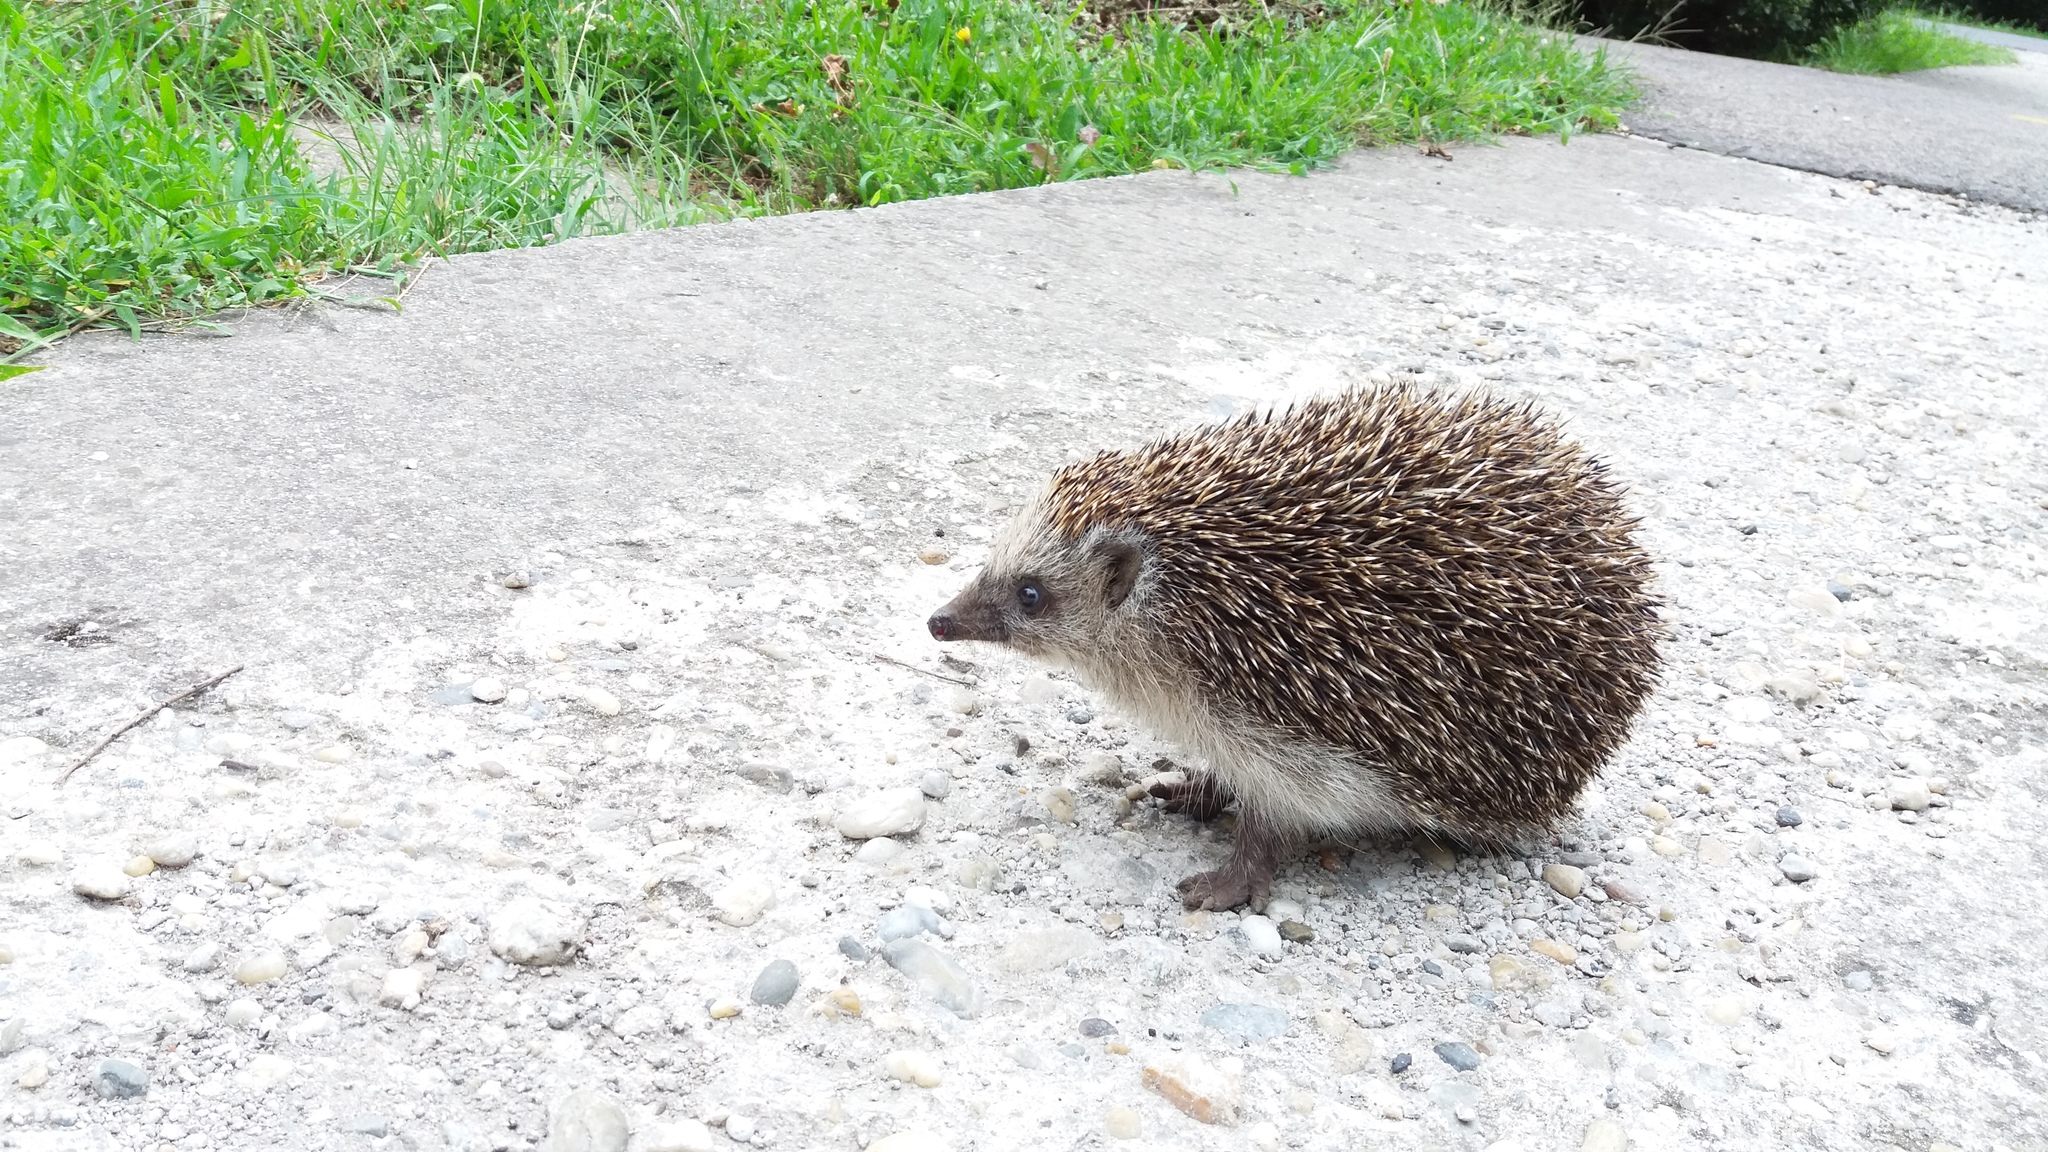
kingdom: Animalia
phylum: Chordata
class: Mammalia
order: Erinaceomorpha
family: Erinaceidae
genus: Erinaceus
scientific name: Erinaceus roumanicus
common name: Northern white-breasted hedgehog
